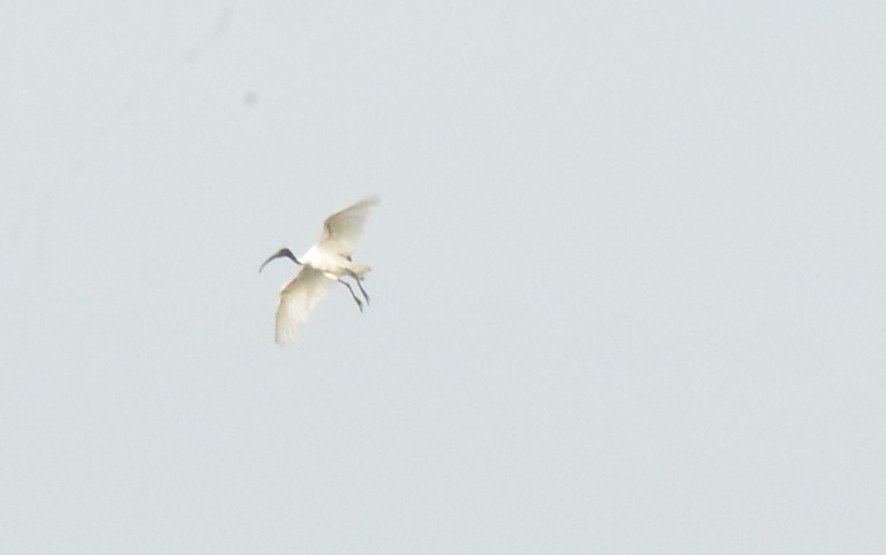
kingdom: Animalia
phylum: Chordata
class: Aves
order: Pelecaniformes
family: Threskiornithidae
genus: Threskiornis
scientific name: Threskiornis melanocephalus
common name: Black-headed ibis
